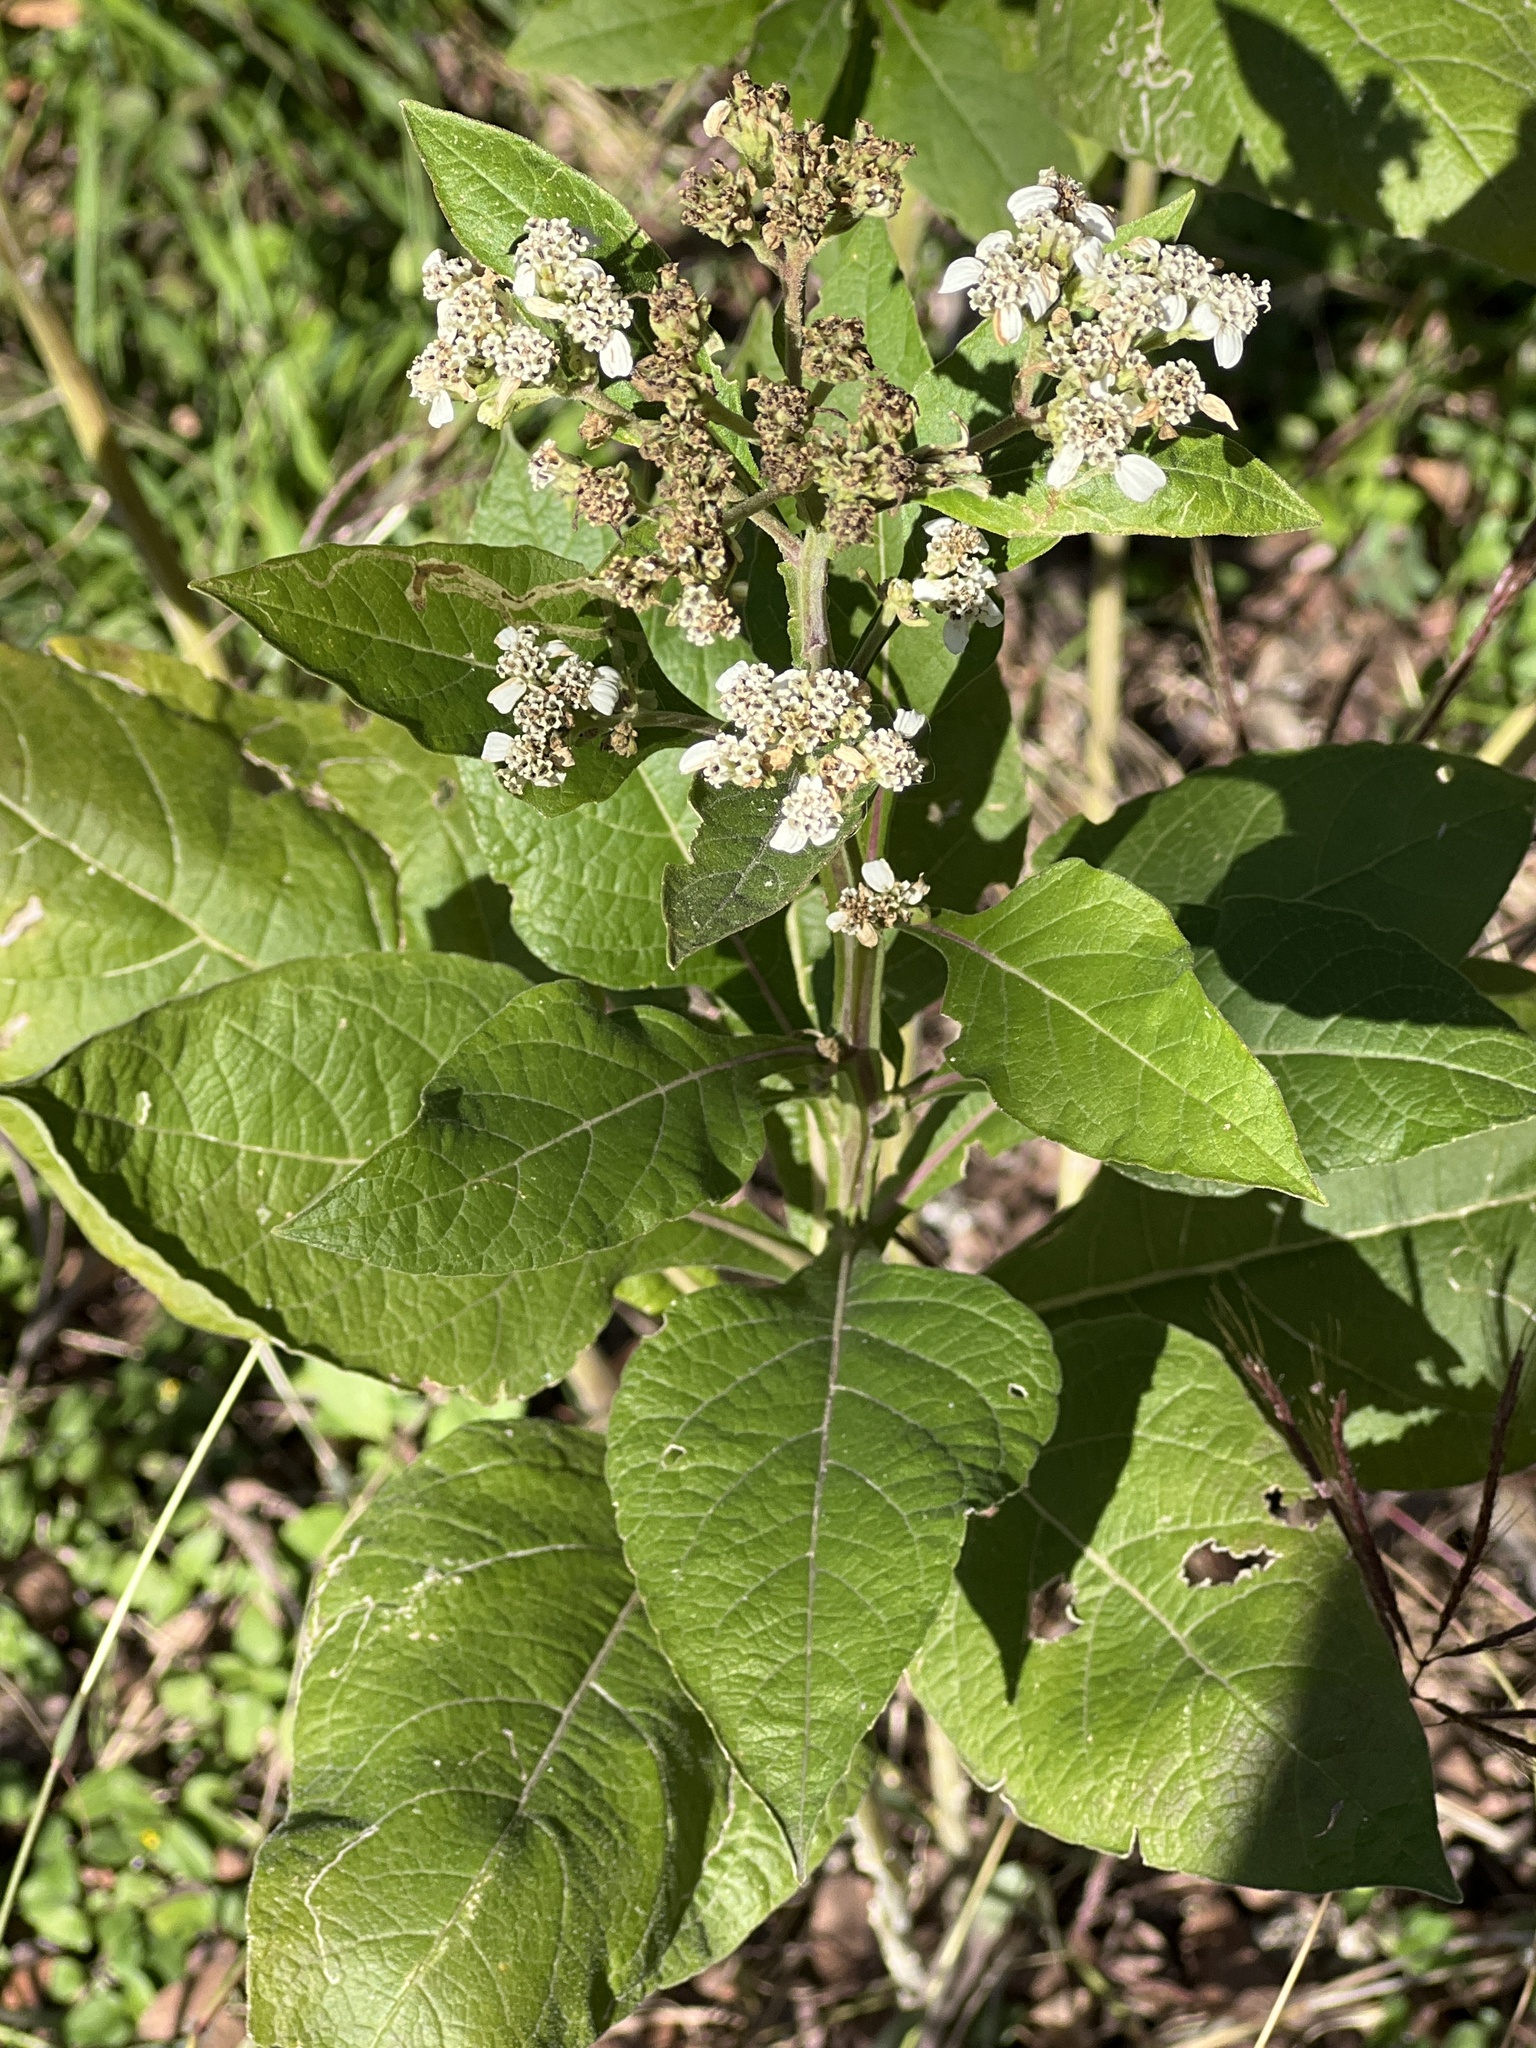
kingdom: Plantae
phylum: Tracheophyta
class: Magnoliopsida
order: Asterales
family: Asteraceae
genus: Verbesina
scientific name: Verbesina virginica
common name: Frostweed
